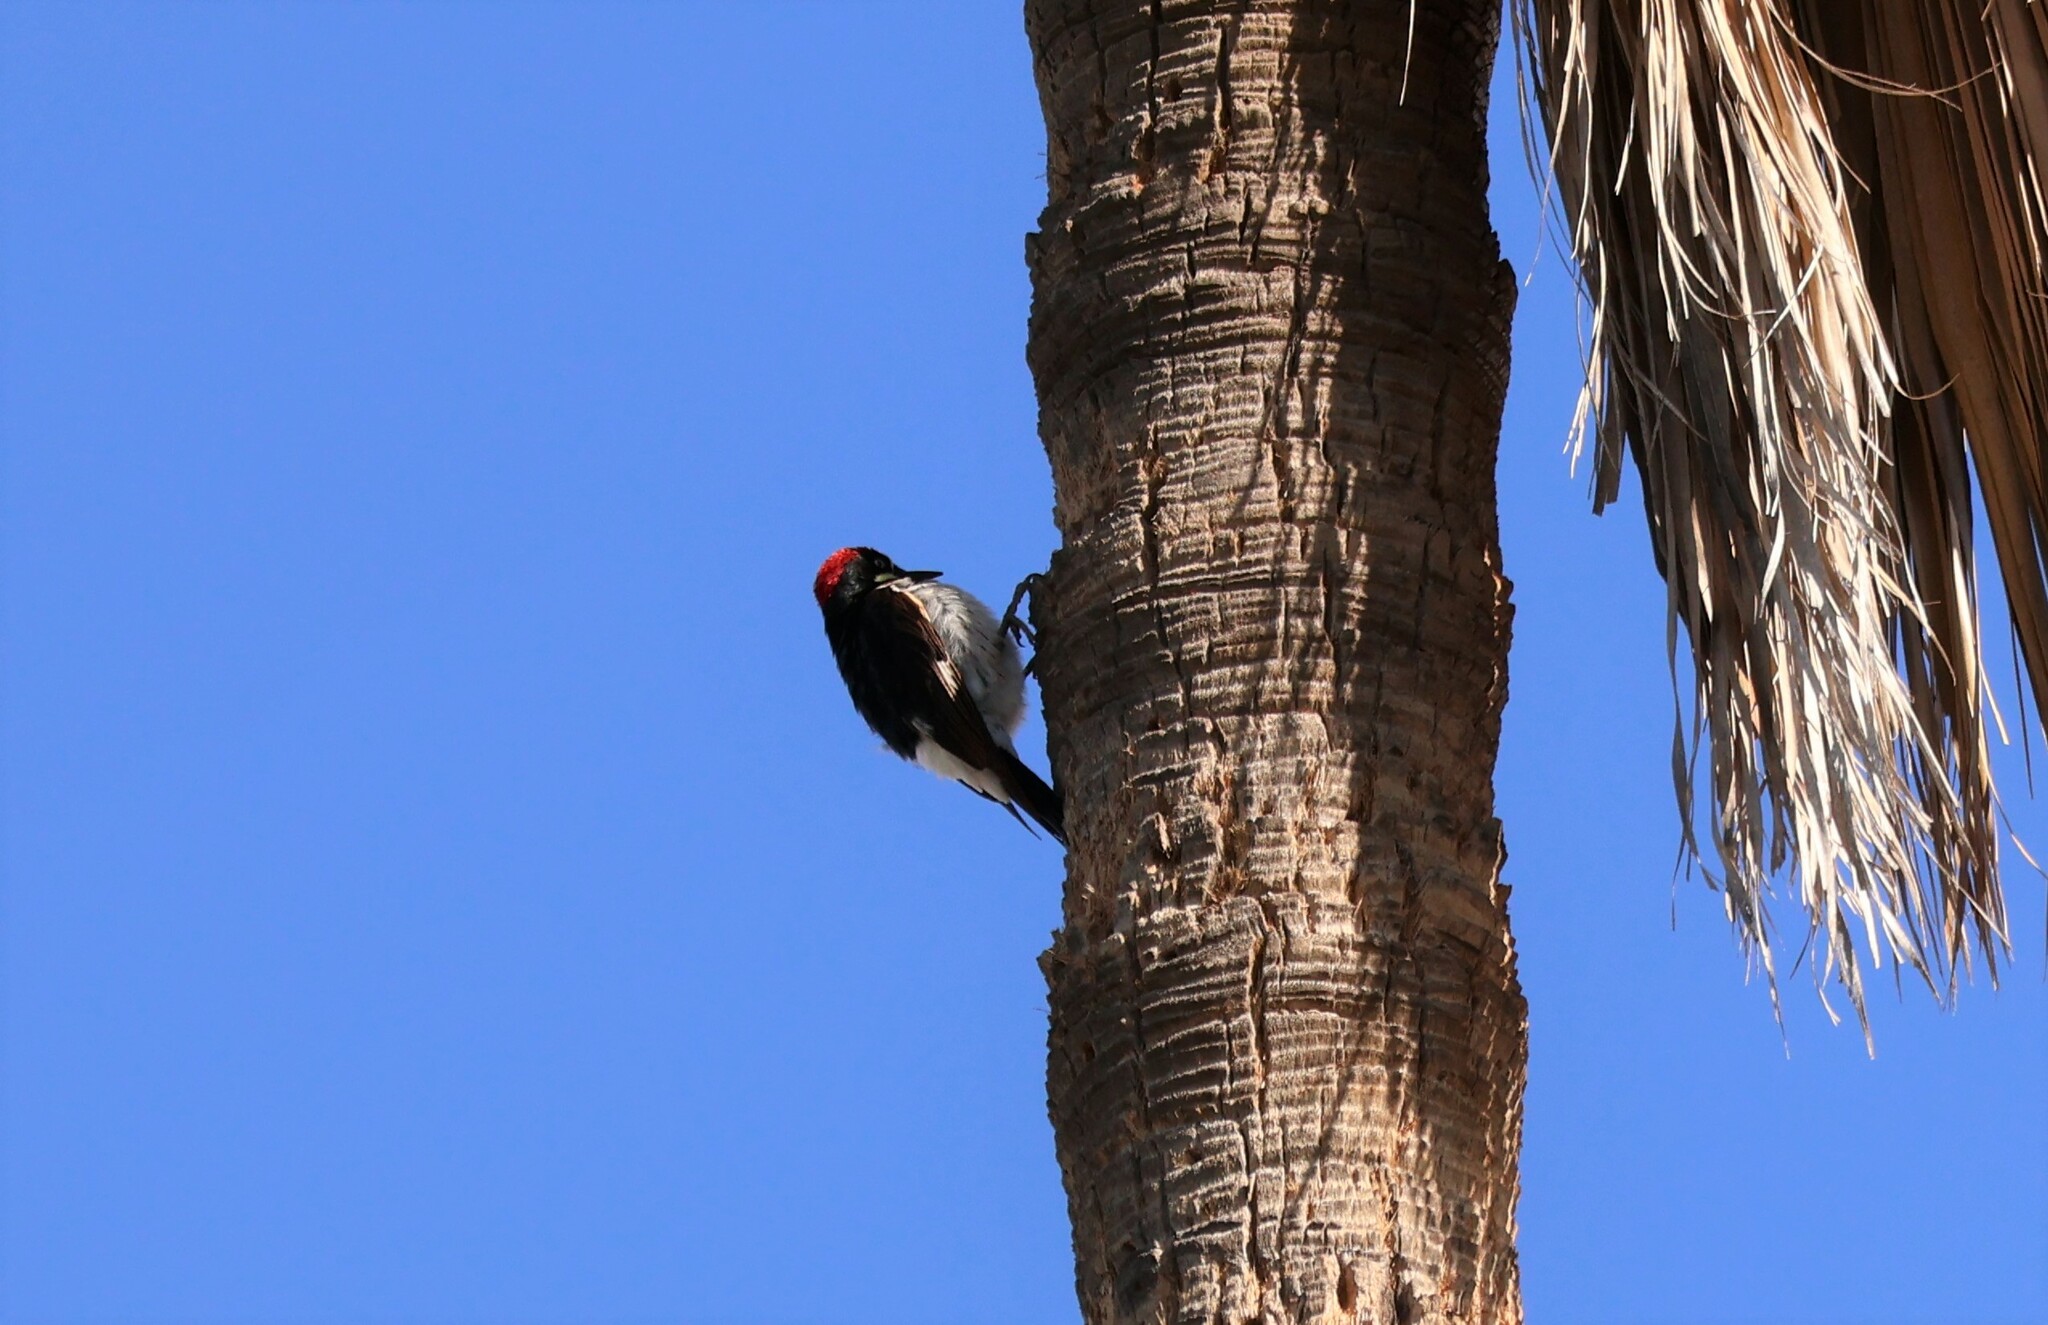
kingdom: Animalia
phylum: Chordata
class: Aves
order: Piciformes
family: Picidae
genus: Melanerpes
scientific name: Melanerpes formicivorus
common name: Acorn woodpecker
